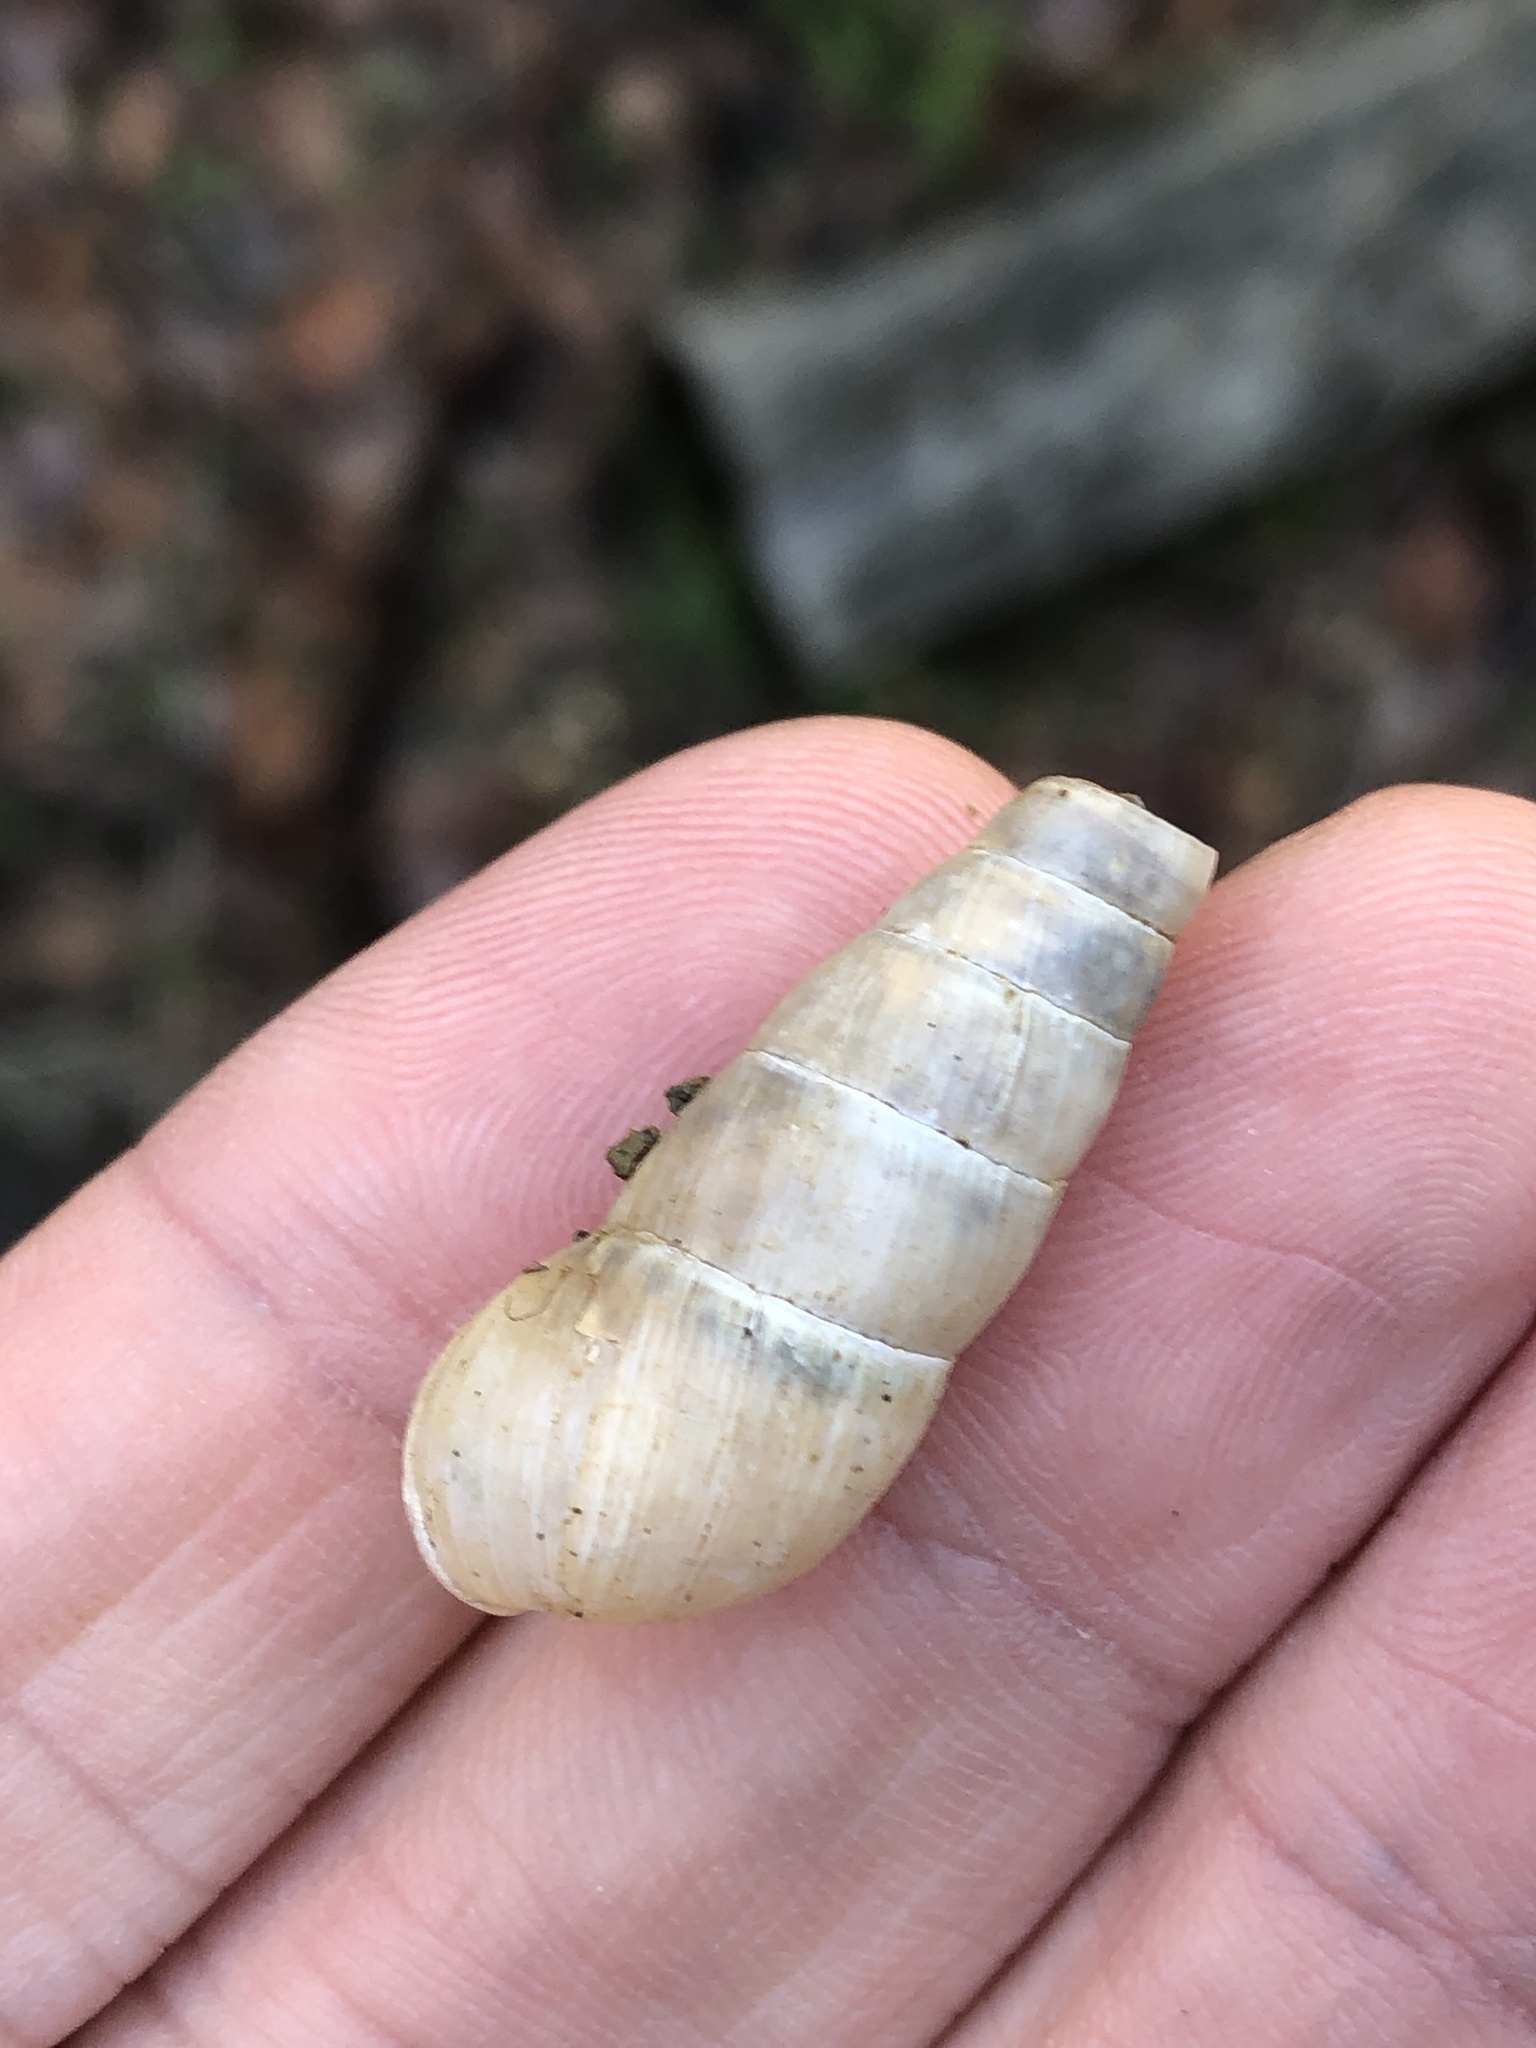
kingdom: Animalia
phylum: Mollusca
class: Gastropoda
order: Stylommatophora
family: Achatinidae
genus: Rumina
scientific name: Rumina decollata
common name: Decollate snail
